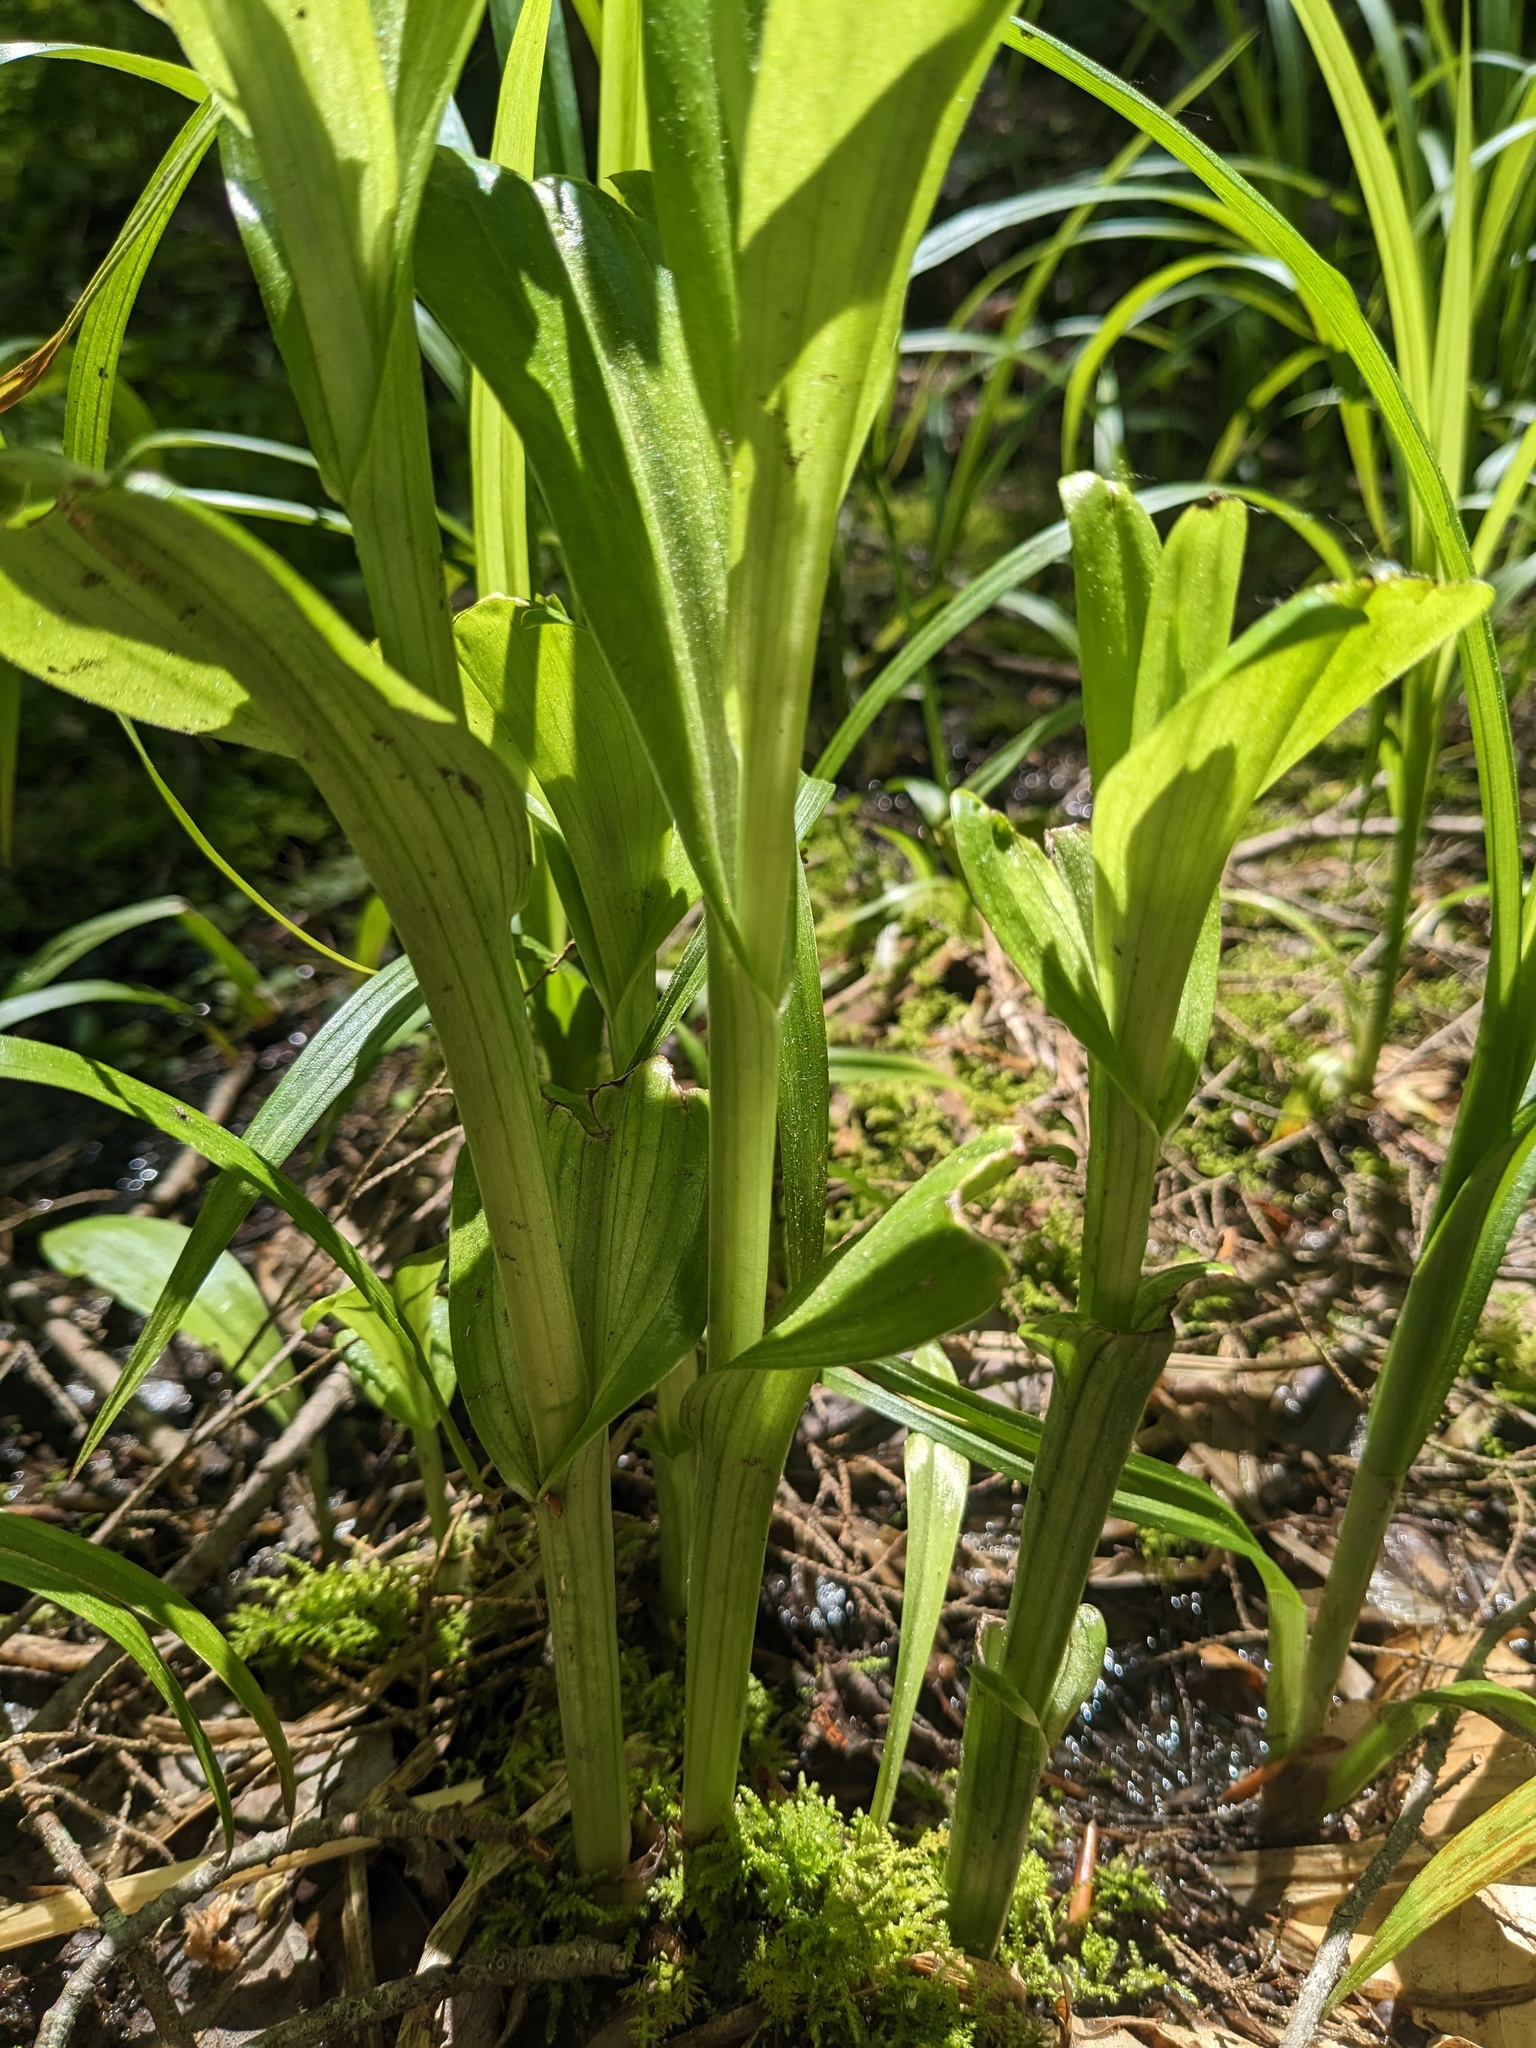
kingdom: Plantae
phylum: Tracheophyta
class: Liliopsida
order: Asparagales
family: Orchidaceae
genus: Platanthera
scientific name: Platanthera grandiflora
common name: Greater purple fringed orchid
